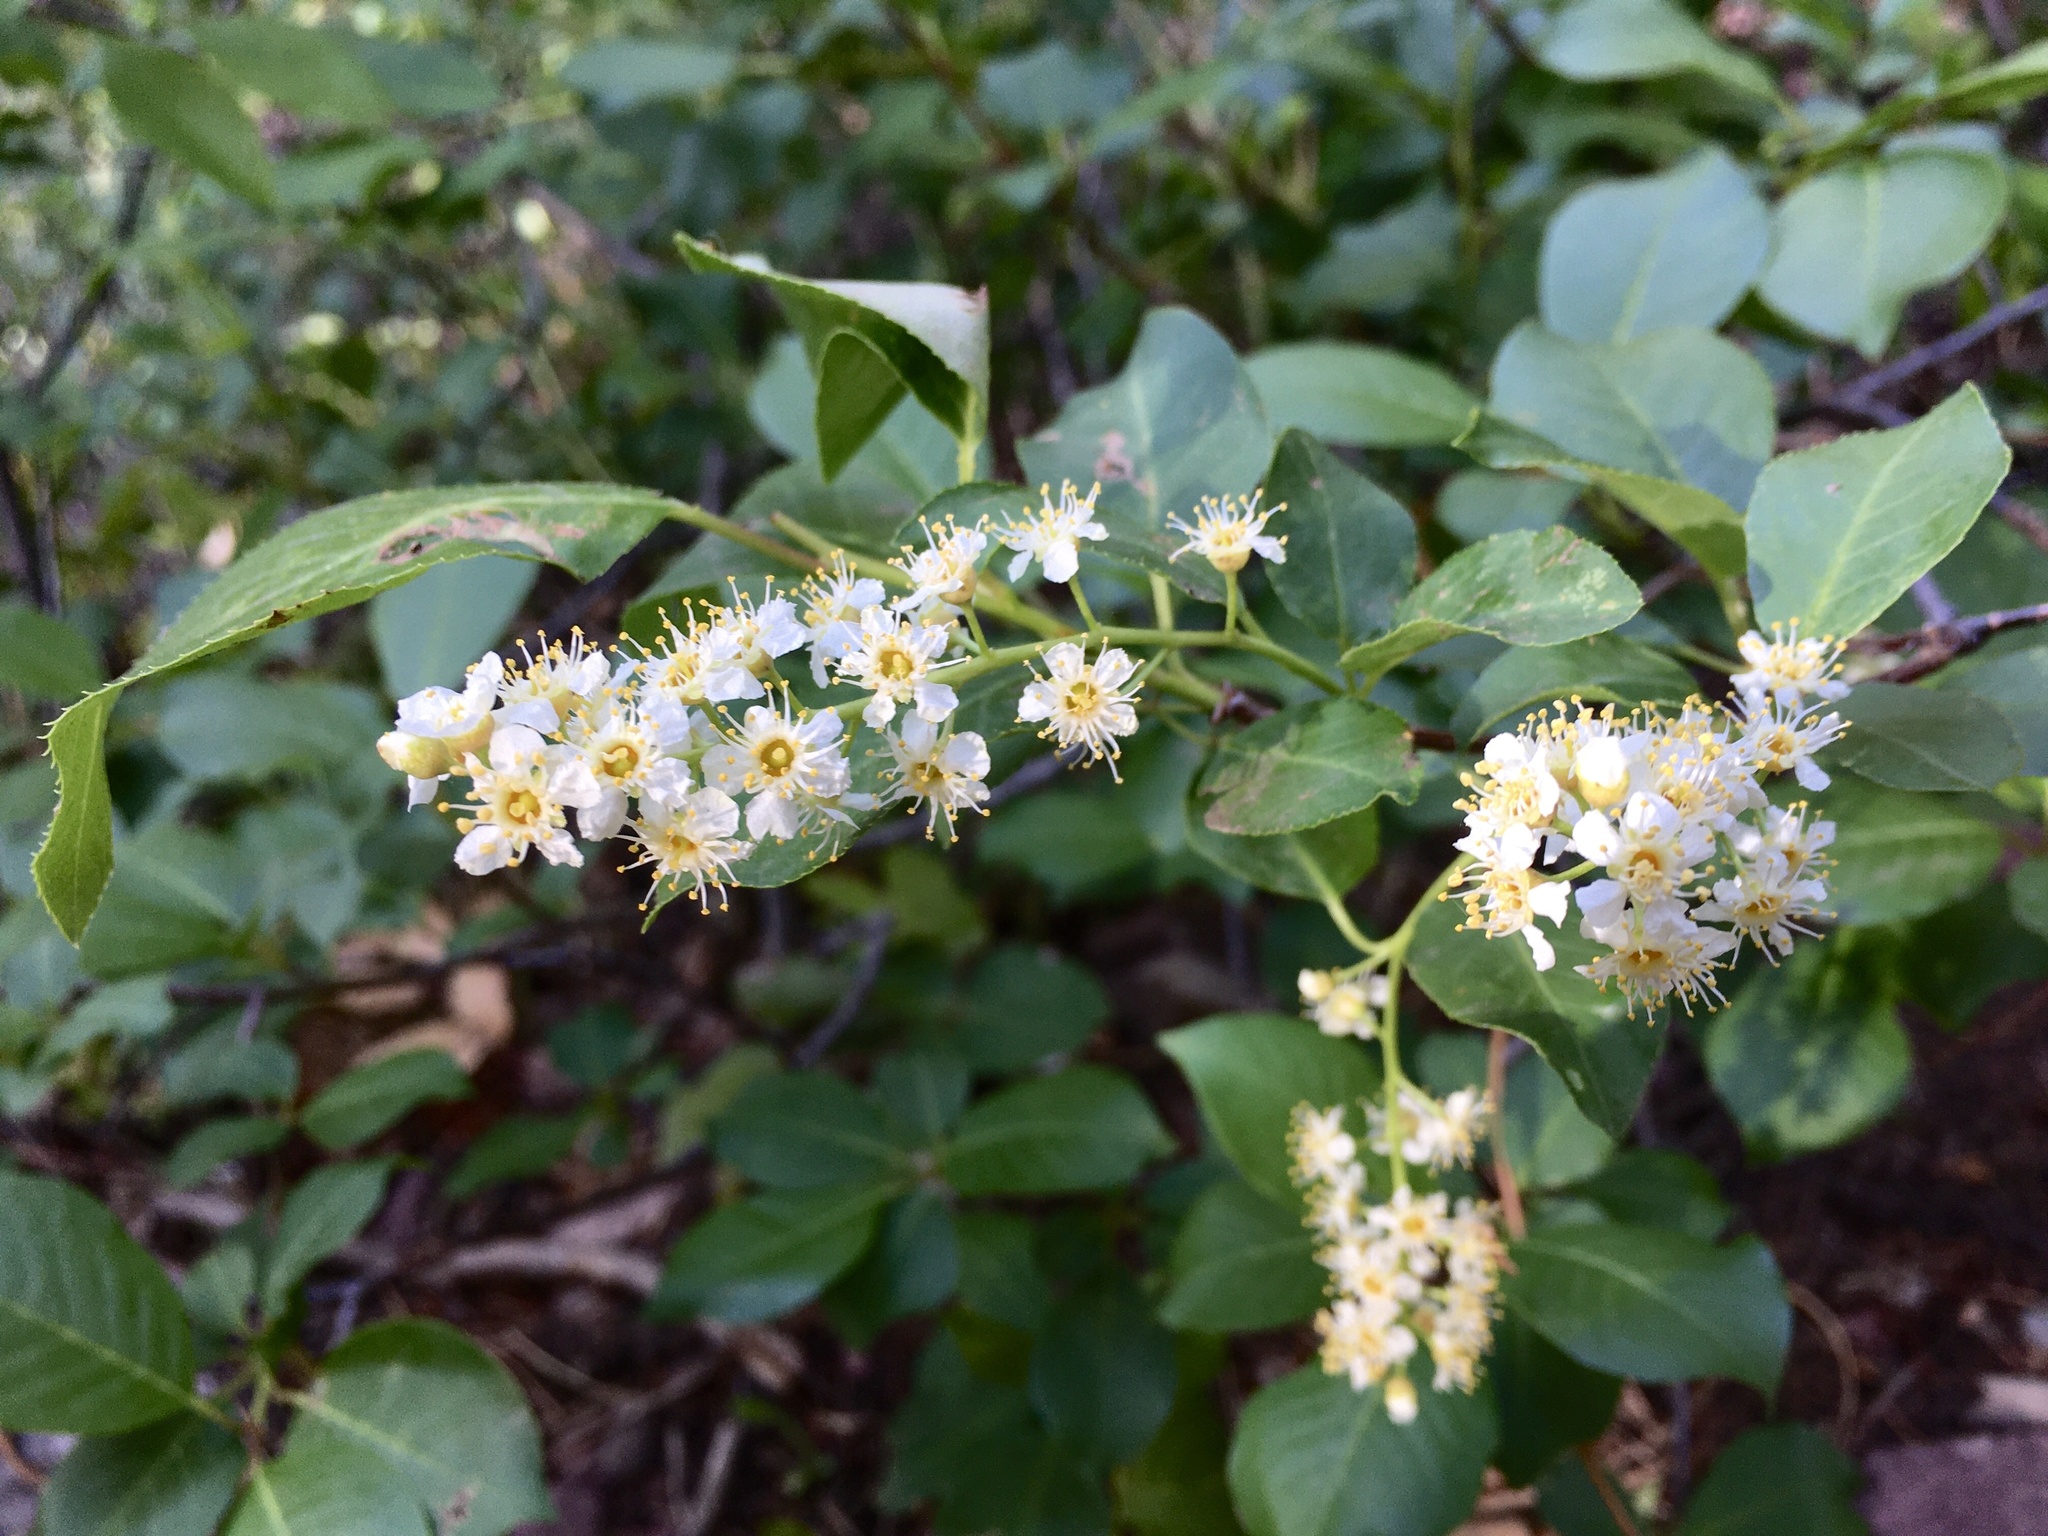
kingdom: Plantae
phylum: Tracheophyta
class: Magnoliopsida
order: Rosales
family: Rosaceae
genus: Prunus
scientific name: Prunus virginiana
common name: Chokecherry
